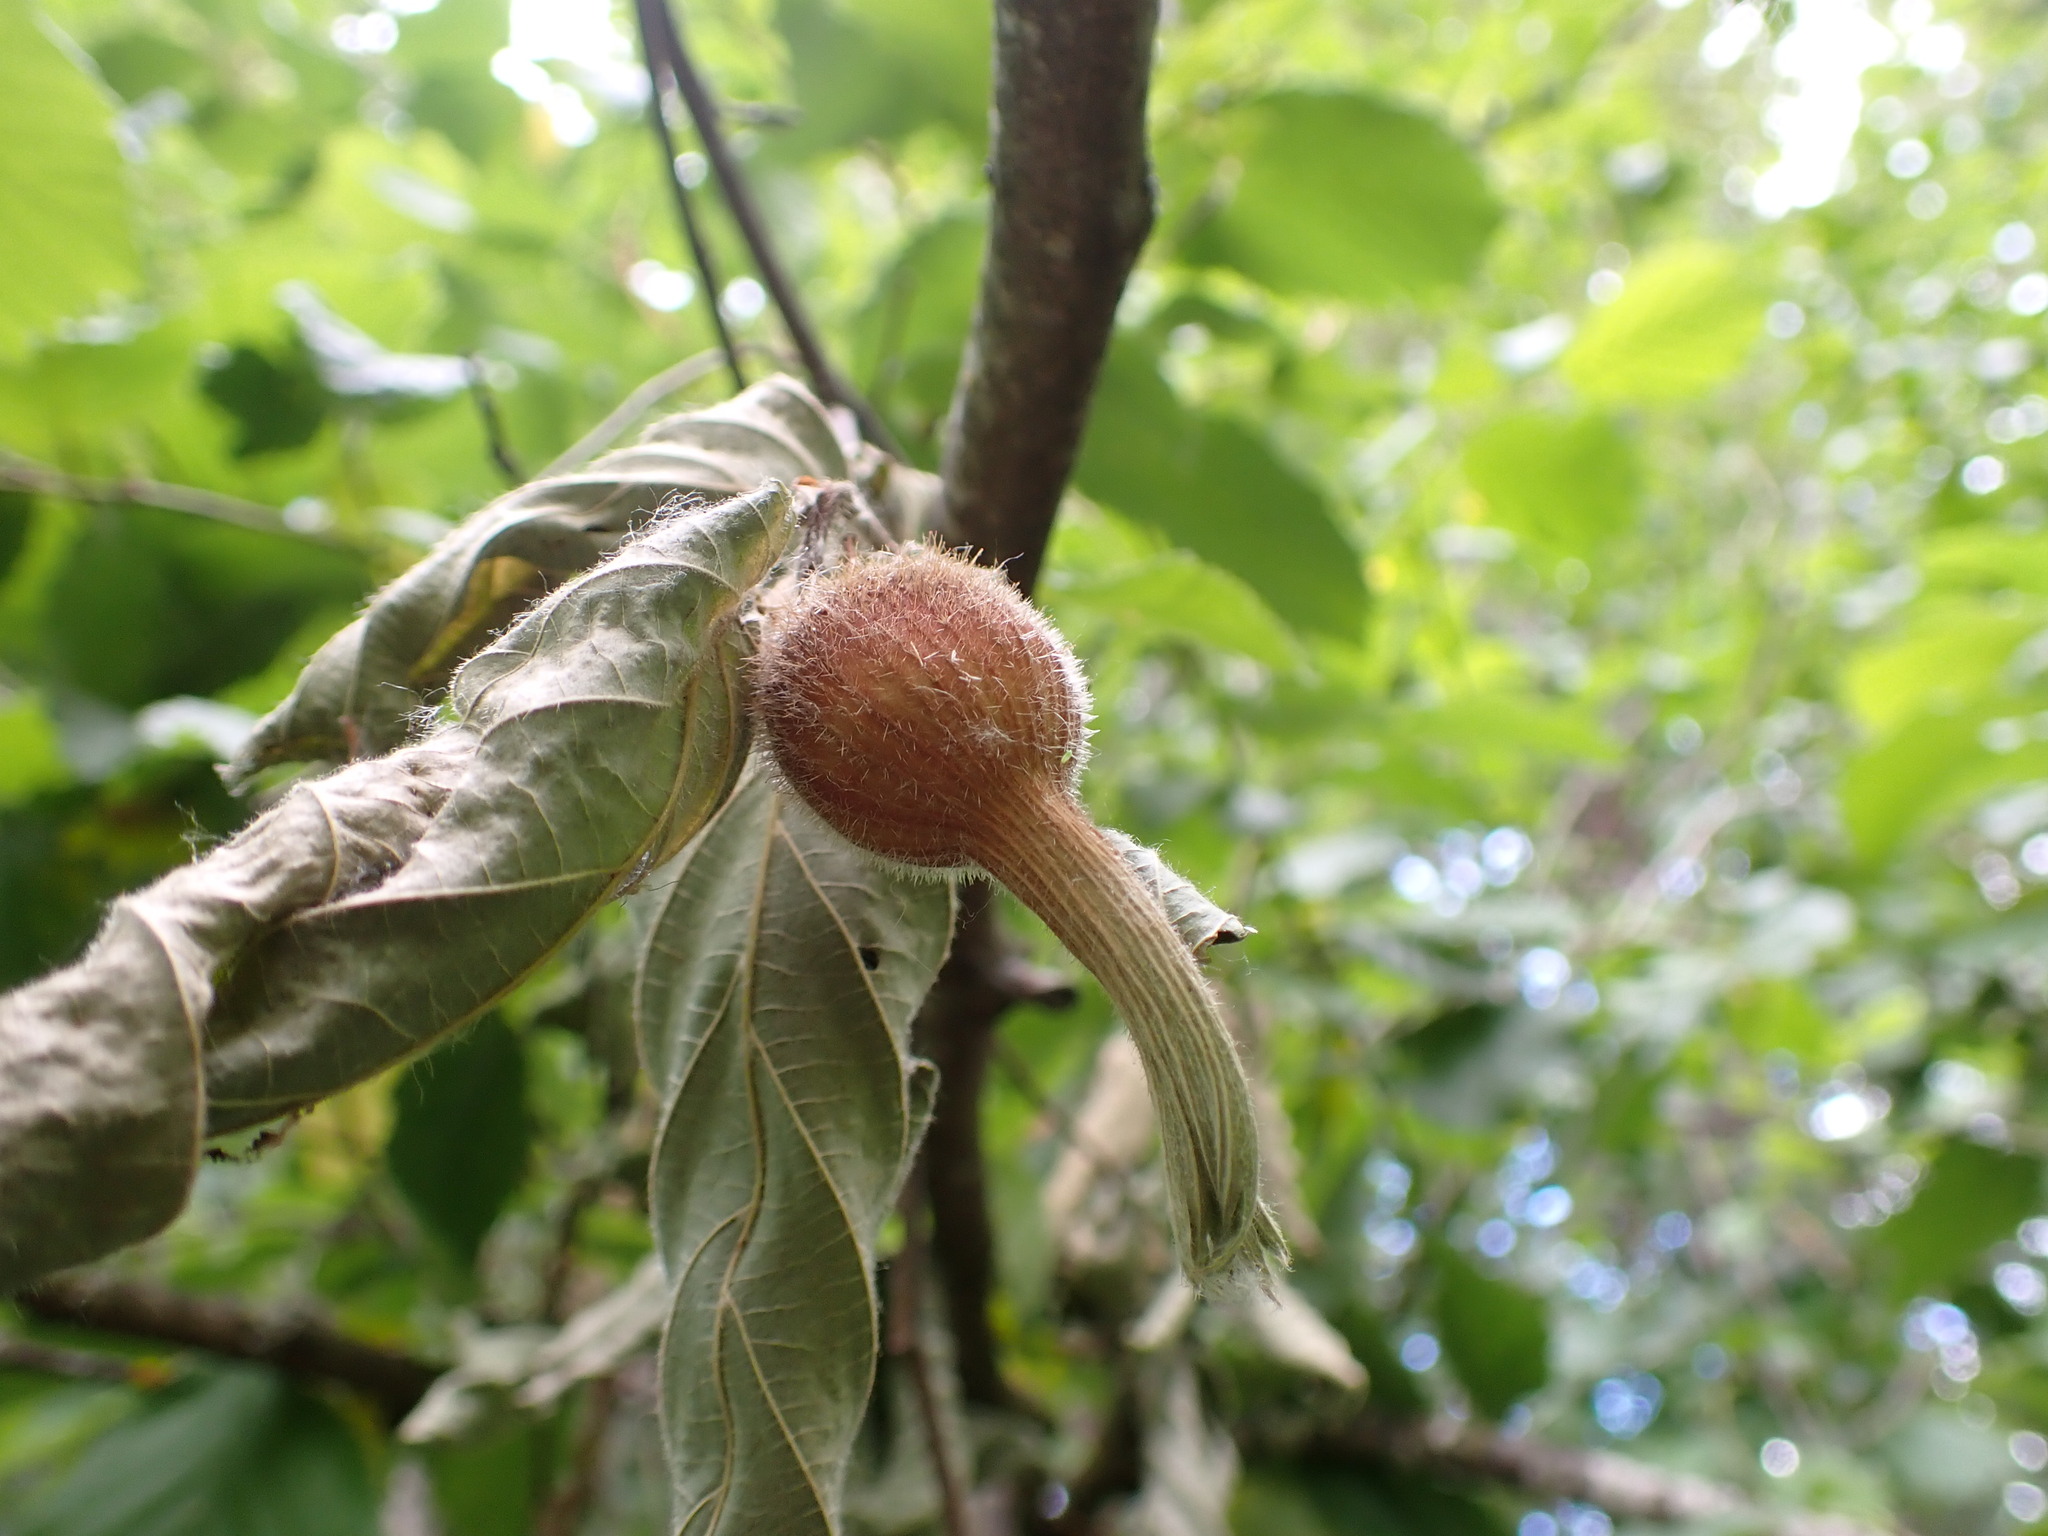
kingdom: Plantae
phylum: Tracheophyta
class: Magnoliopsida
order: Fagales
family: Betulaceae
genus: Corylus
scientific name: Corylus cornuta
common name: Beaked hazel
